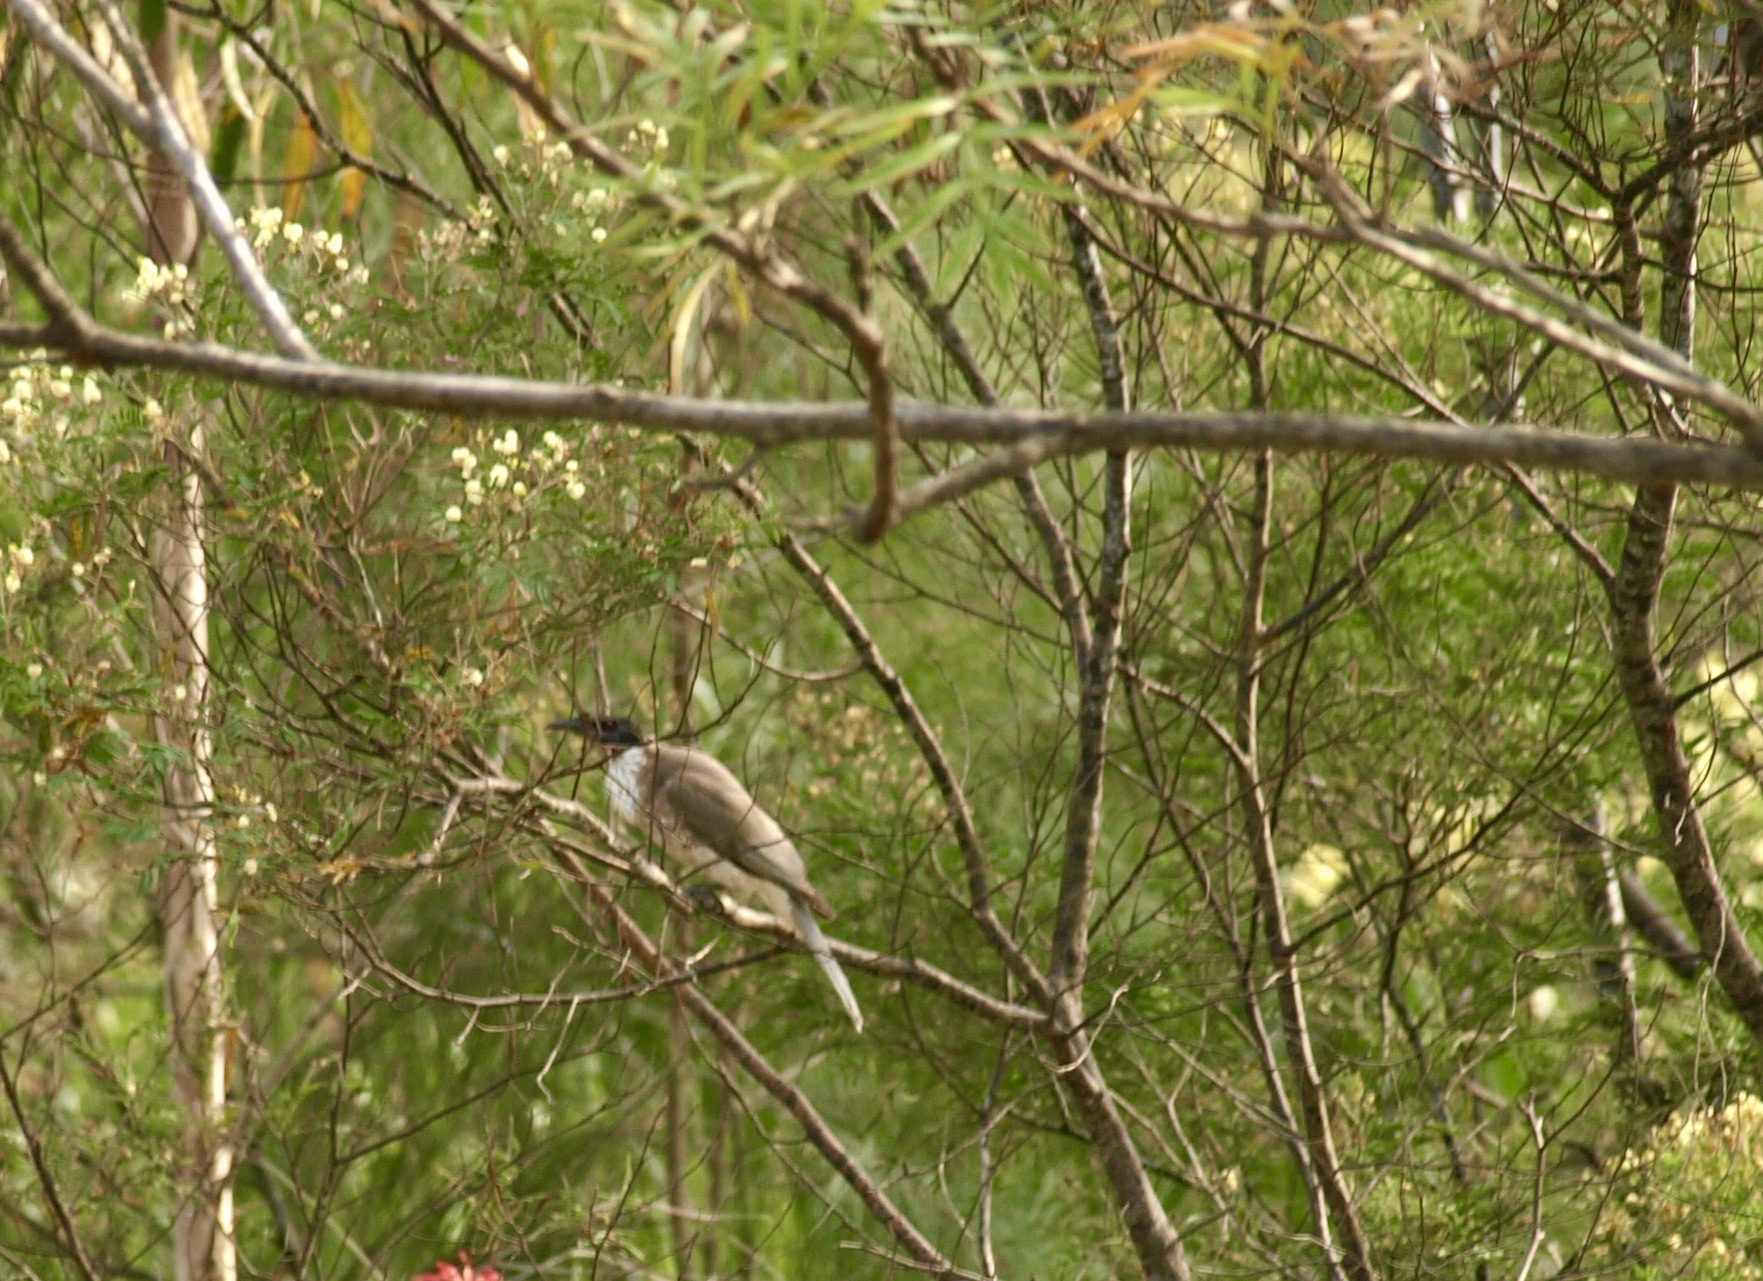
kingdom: Animalia
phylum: Chordata
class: Aves
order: Passeriformes
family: Meliphagidae
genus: Philemon
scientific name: Philemon corniculatus
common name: Noisy friarbird
